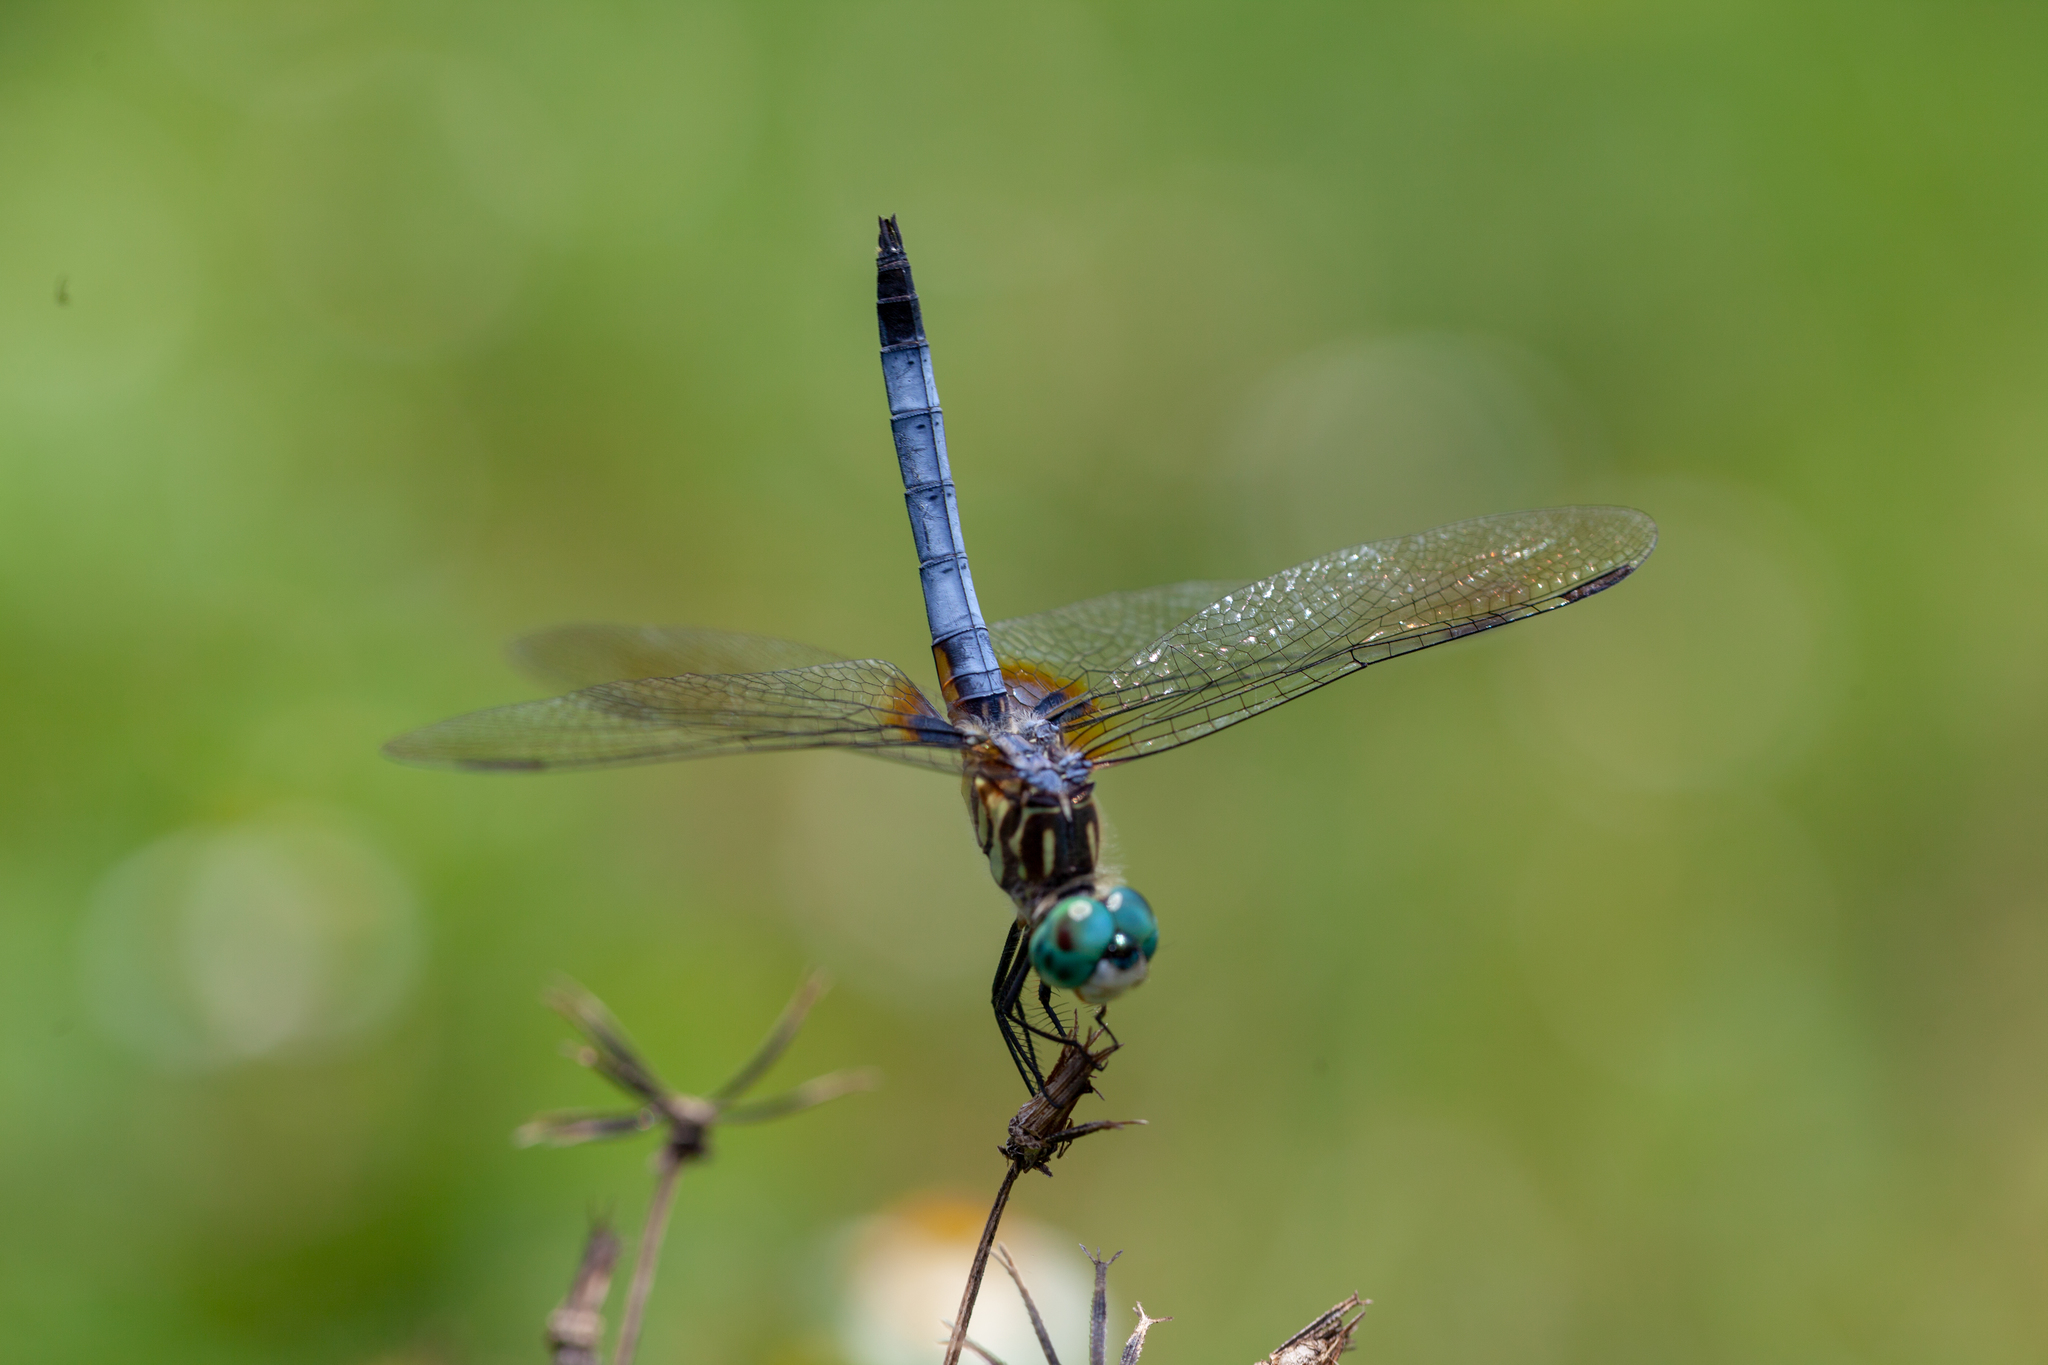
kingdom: Animalia
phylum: Arthropoda
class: Insecta
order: Odonata
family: Libellulidae
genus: Pachydiplax
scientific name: Pachydiplax longipennis
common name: Blue dasher
